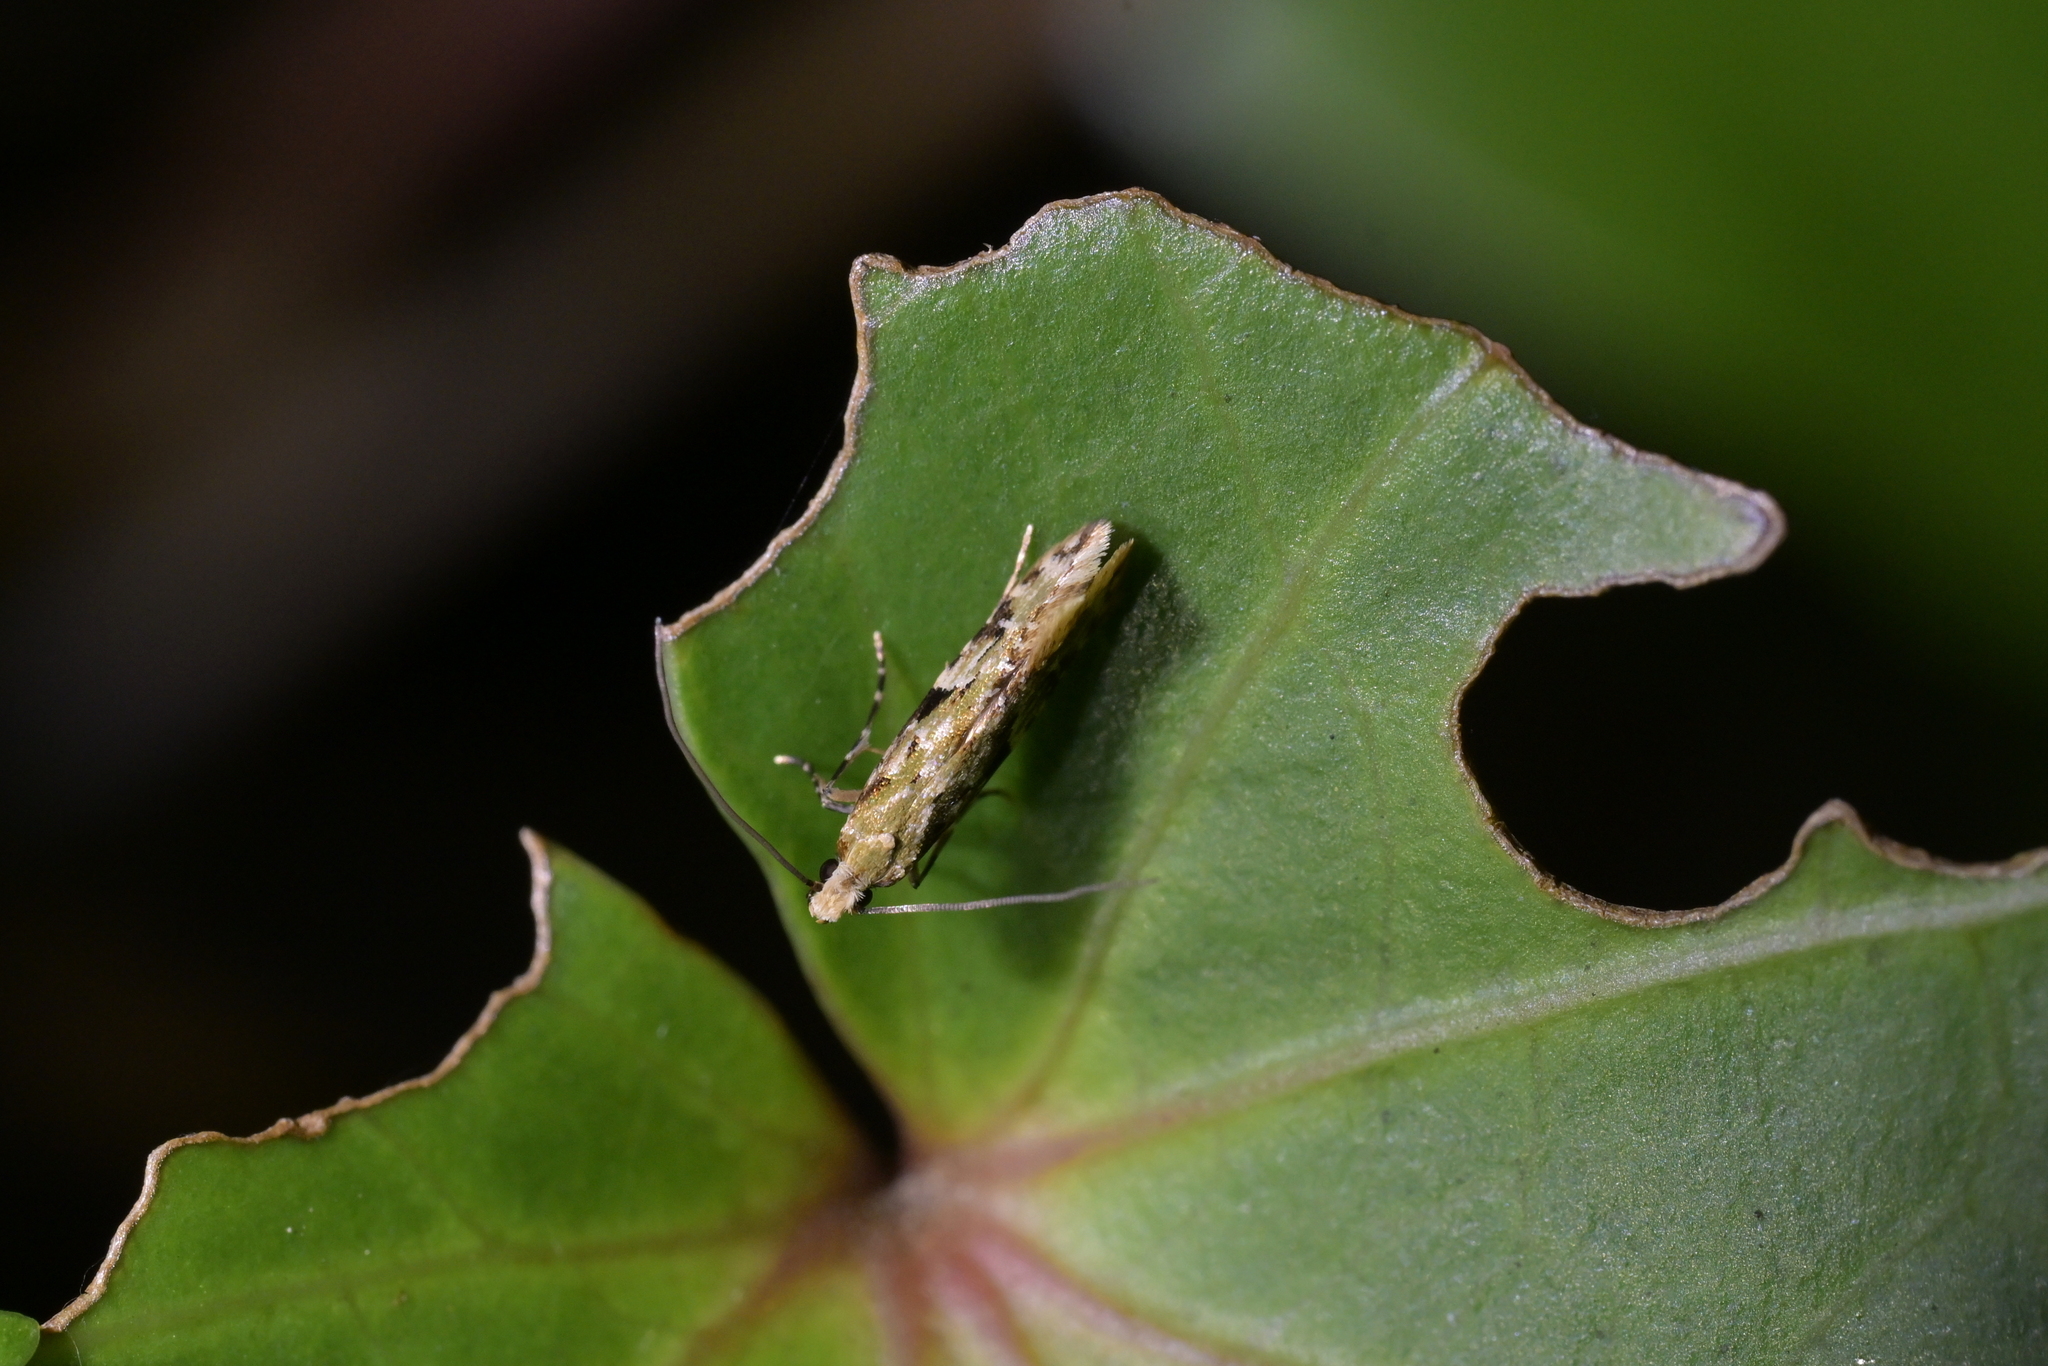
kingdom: Animalia
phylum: Arthropoda
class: Insecta
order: Lepidoptera
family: Tineidae
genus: Crypsitricha
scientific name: Crypsitricha mesotypa
